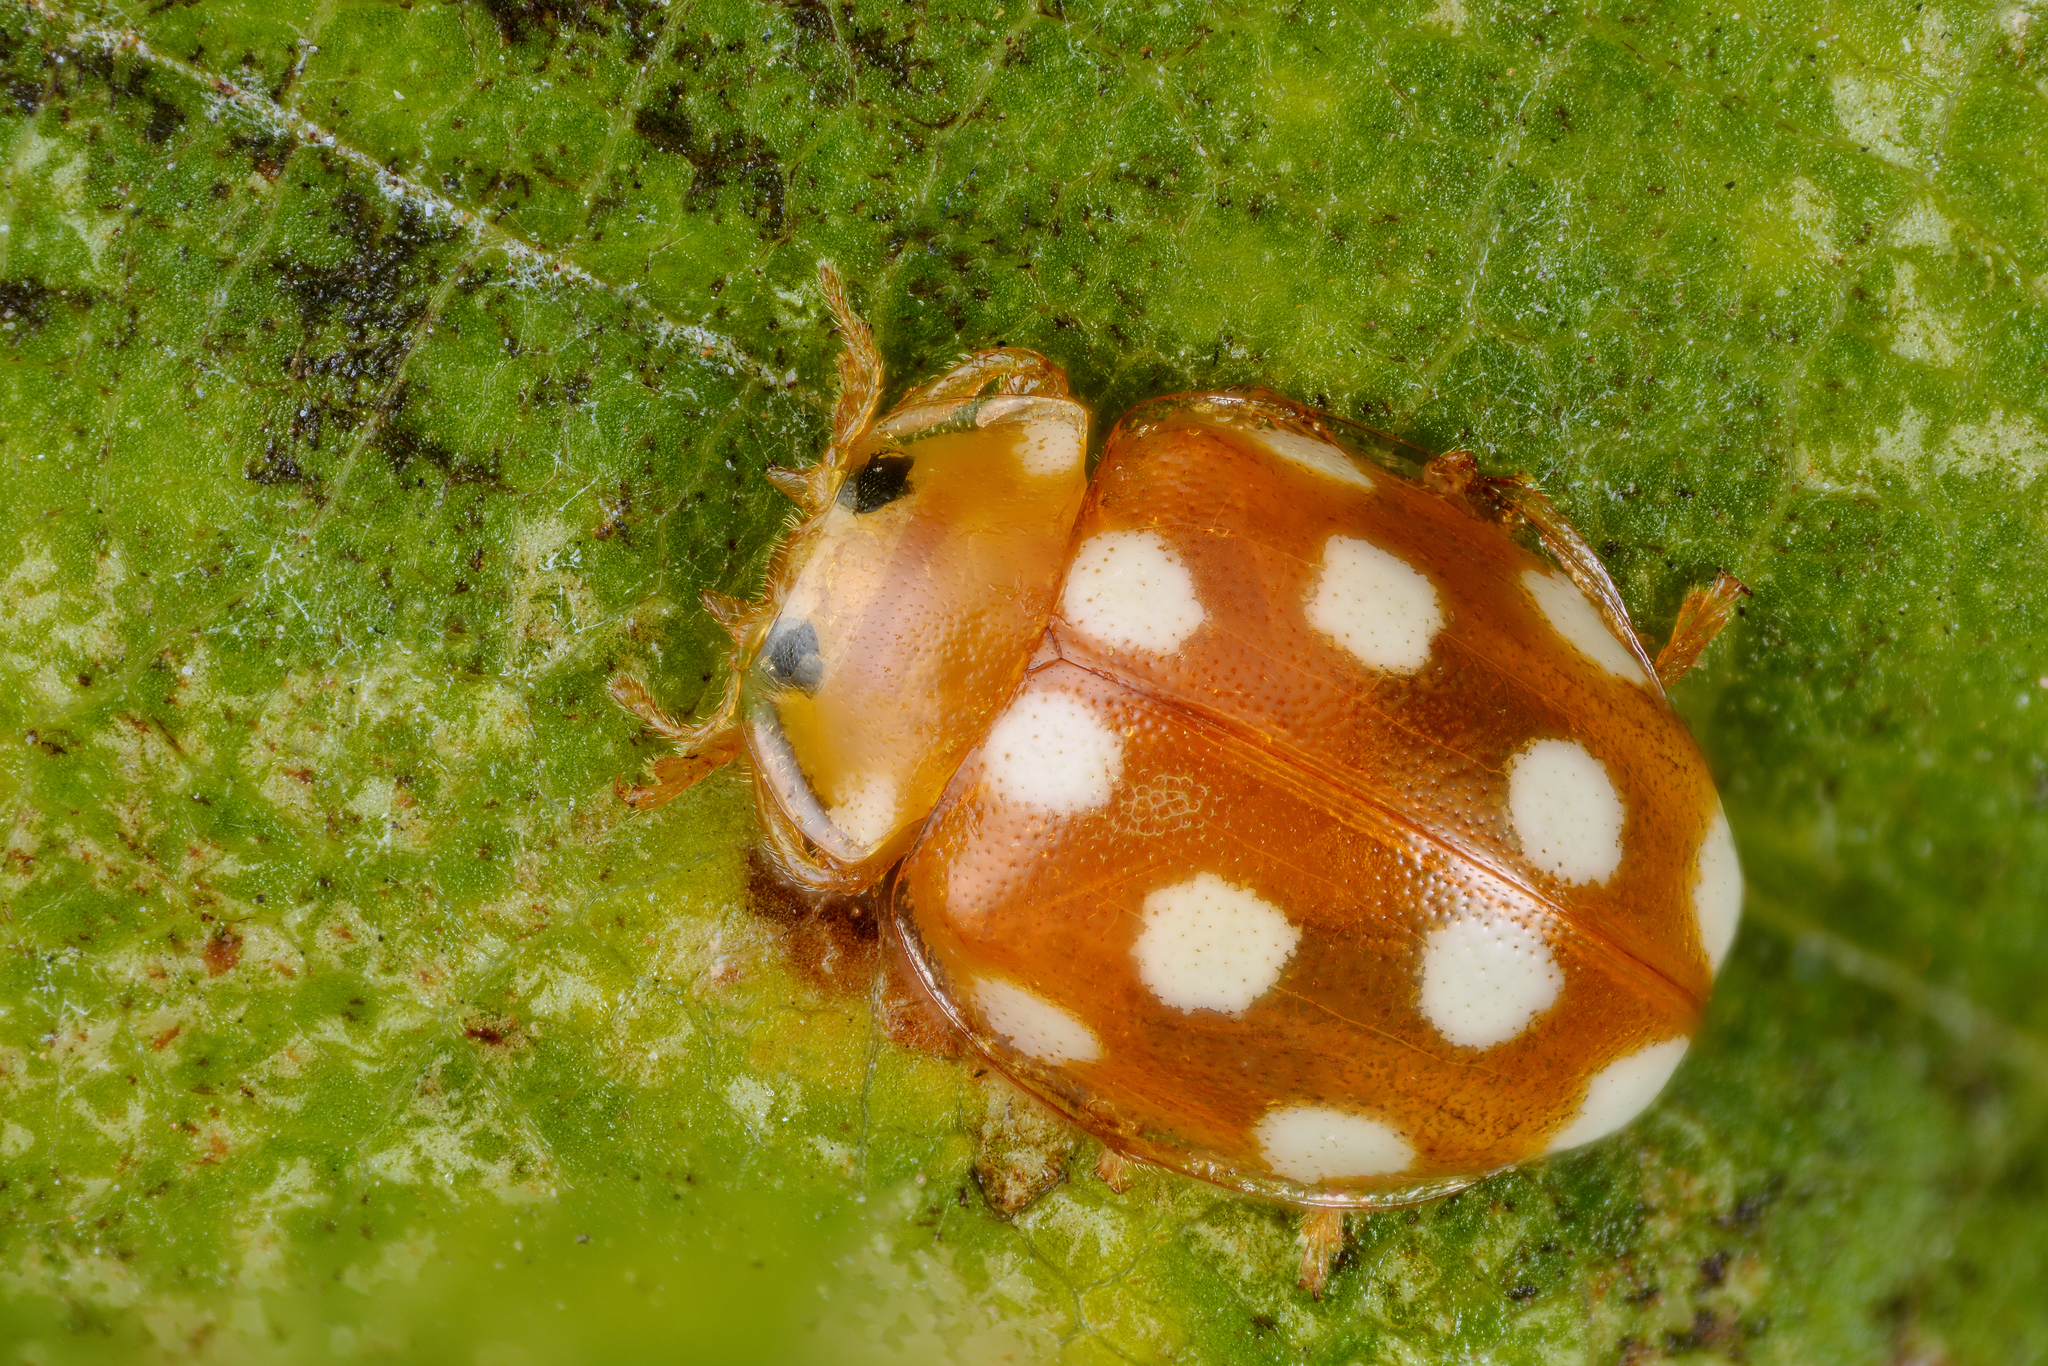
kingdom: Animalia
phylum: Arthropoda
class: Insecta
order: Coleoptera
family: Coccinellidae
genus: Vibidia
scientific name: Vibidia duodecimguttata
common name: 12-spot ladybird
